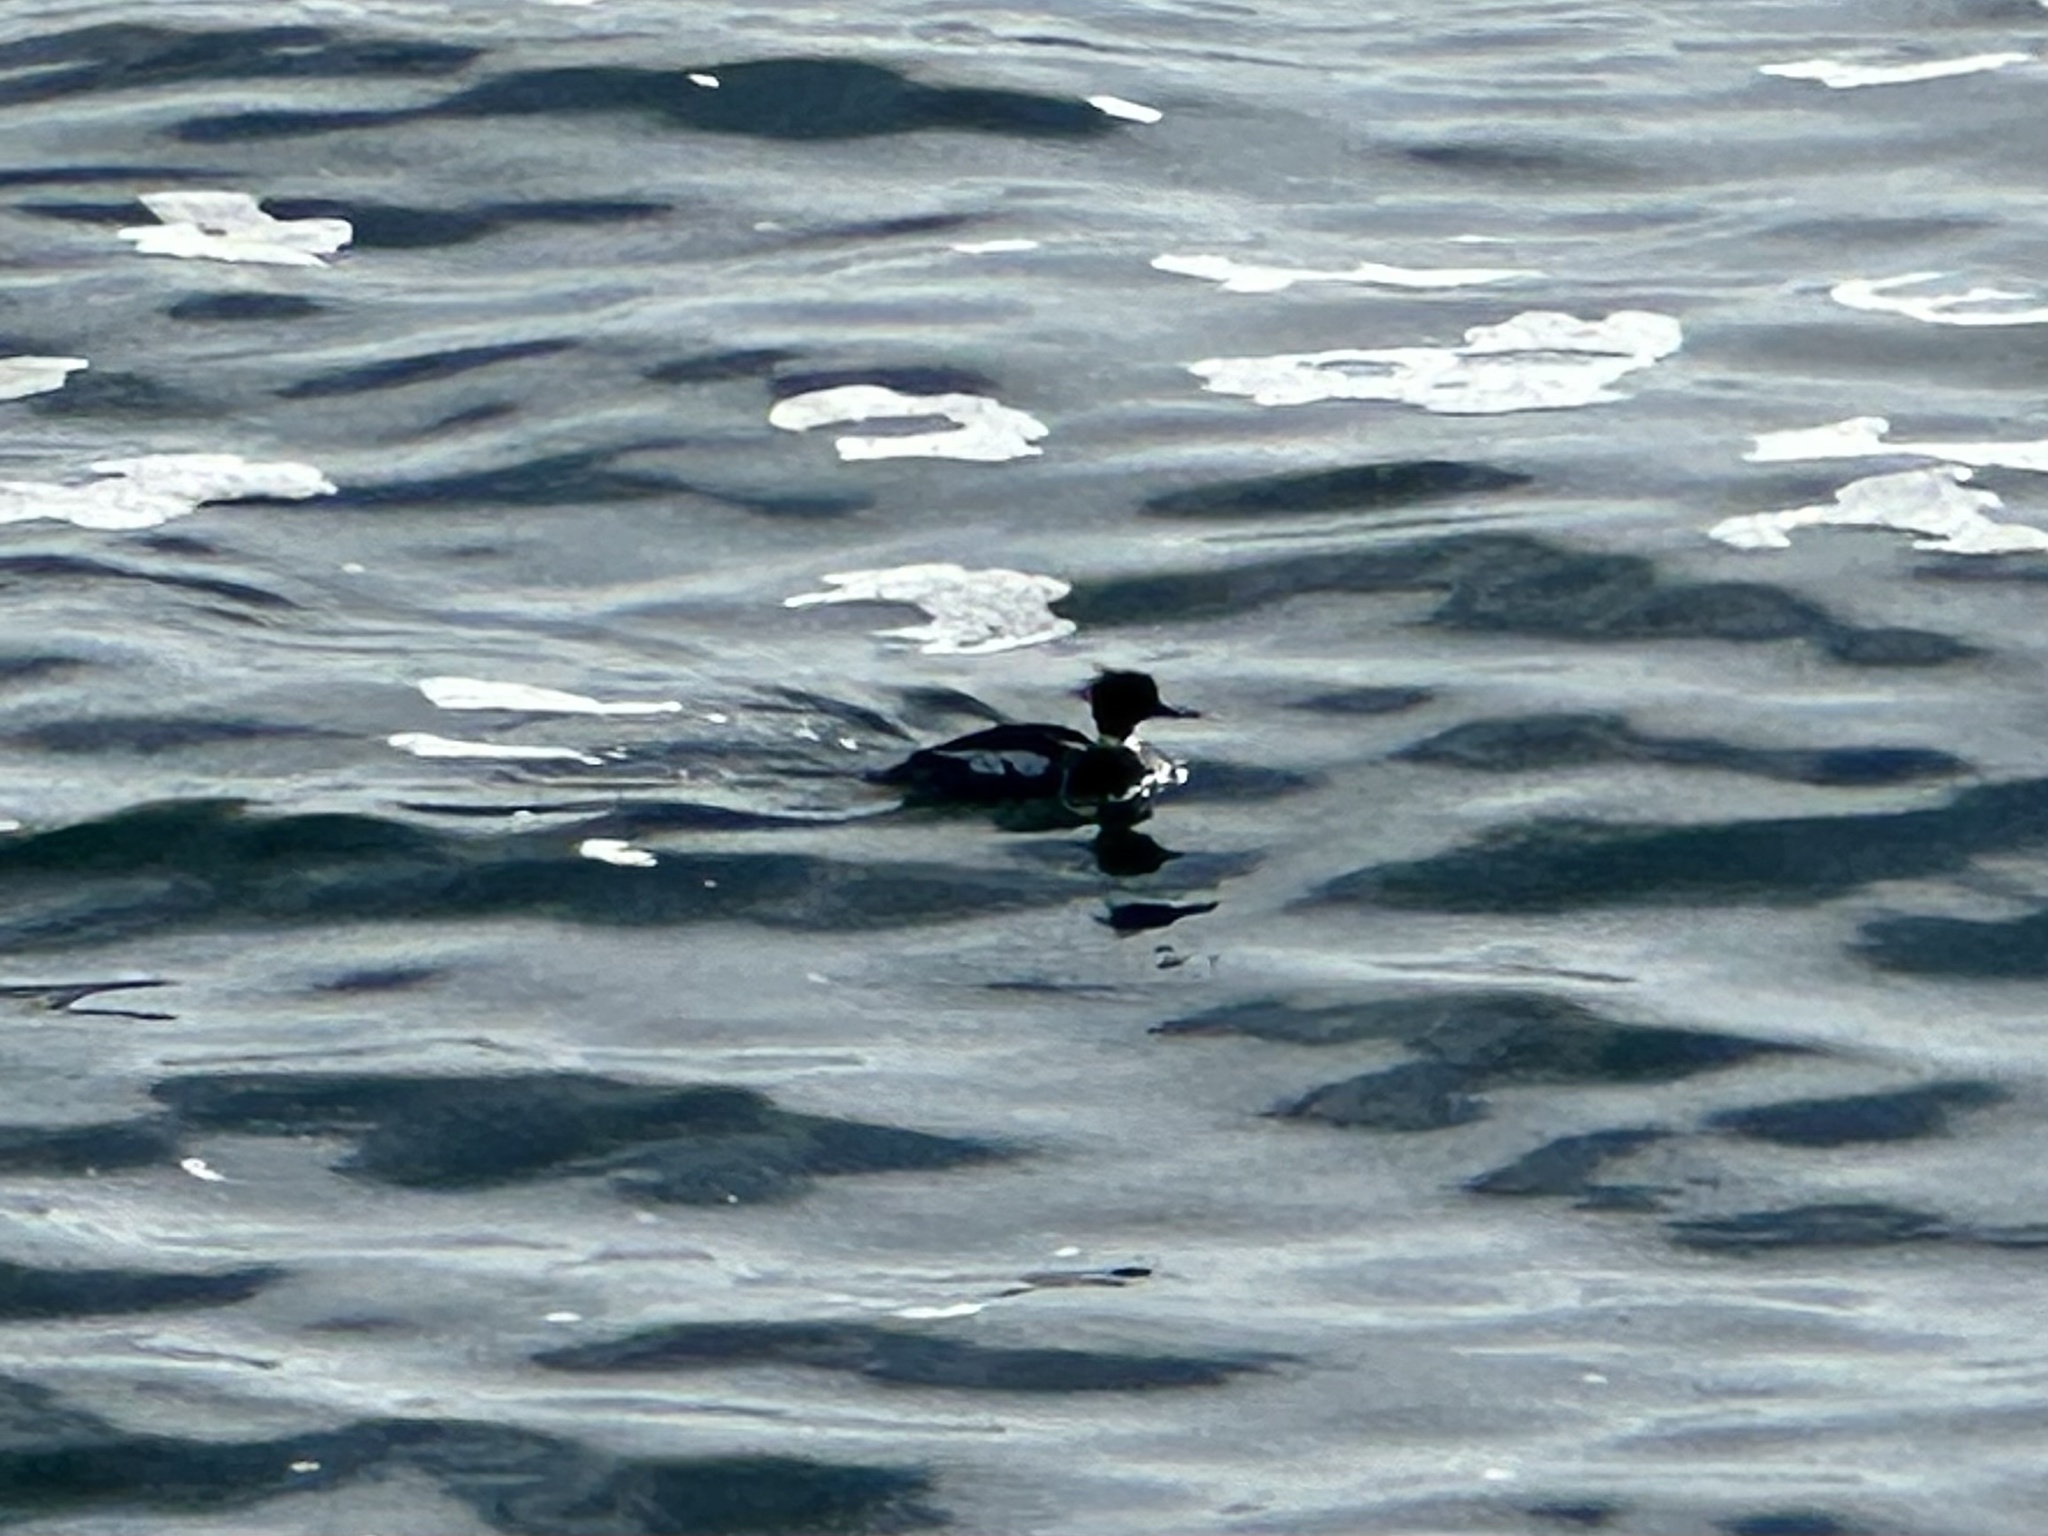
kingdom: Animalia
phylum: Chordata
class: Aves
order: Anseriformes
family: Anatidae
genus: Mergus
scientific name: Mergus serrator
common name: Red-breasted merganser
